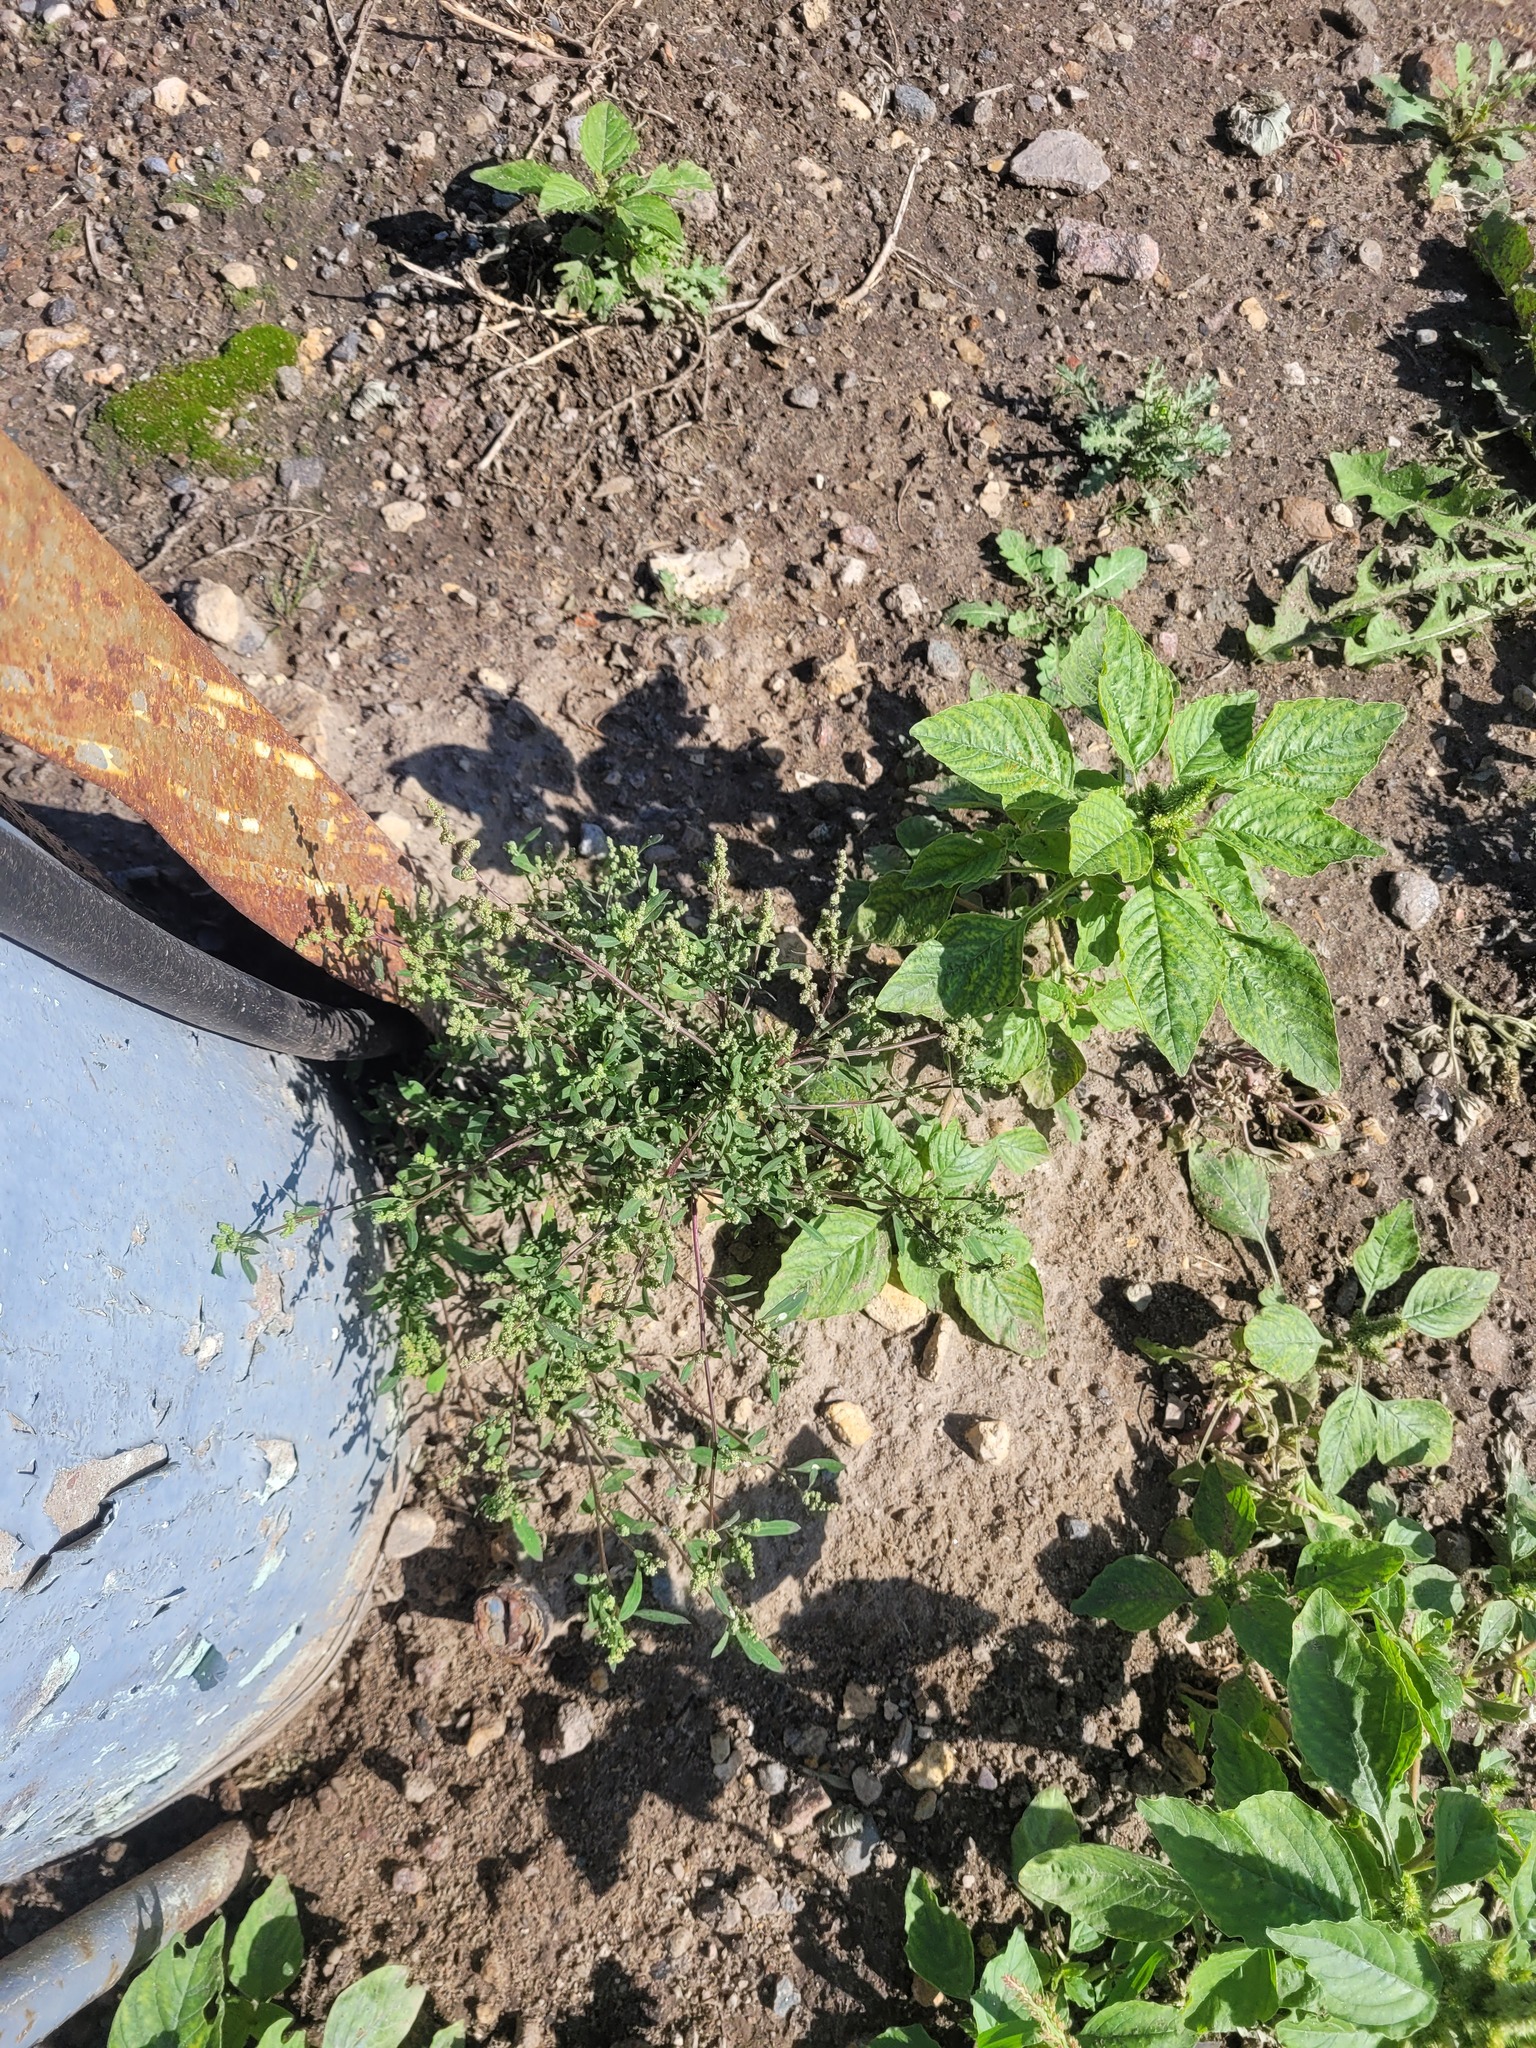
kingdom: Plantae
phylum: Tracheophyta
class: Magnoliopsida
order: Caryophyllales
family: Amaranthaceae
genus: Chenopodium
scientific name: Chenopodium betaceum
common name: Striped goosefoot
